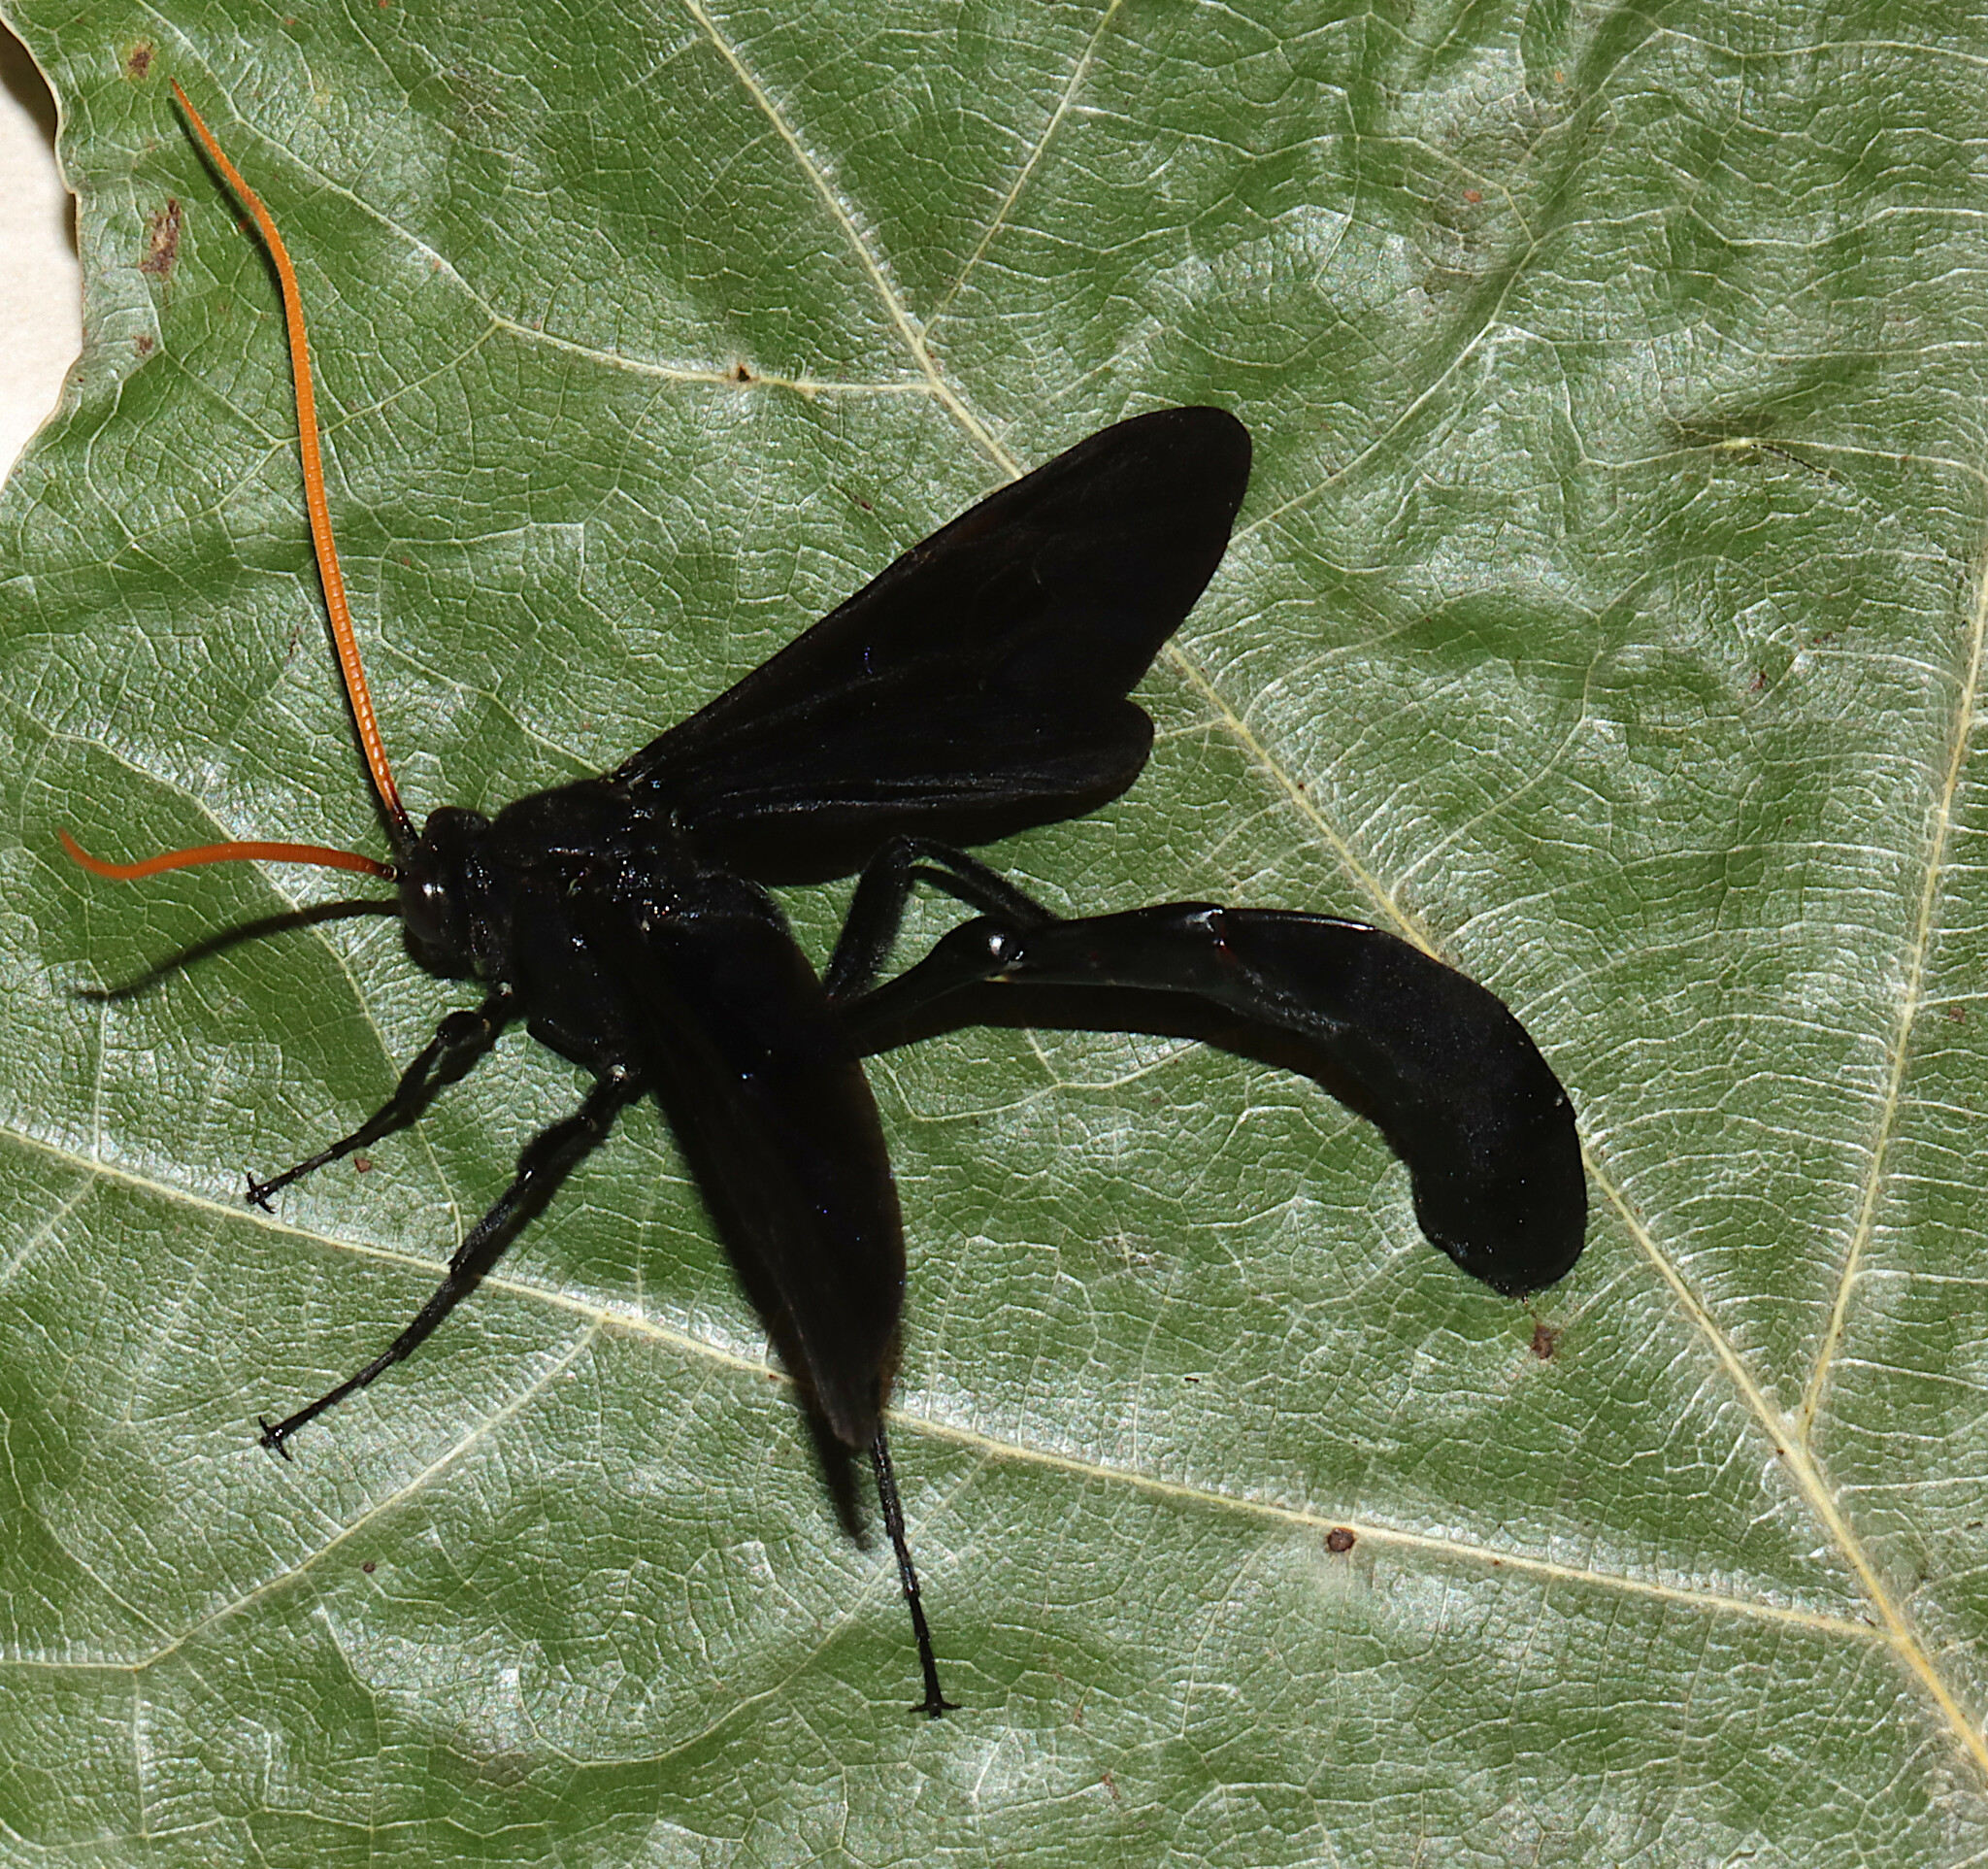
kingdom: Animalia
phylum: Arthropoda
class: Insecta
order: Hymenoptera
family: Ichneumonidae
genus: Thyreodon
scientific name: Thyreodon atricolor
